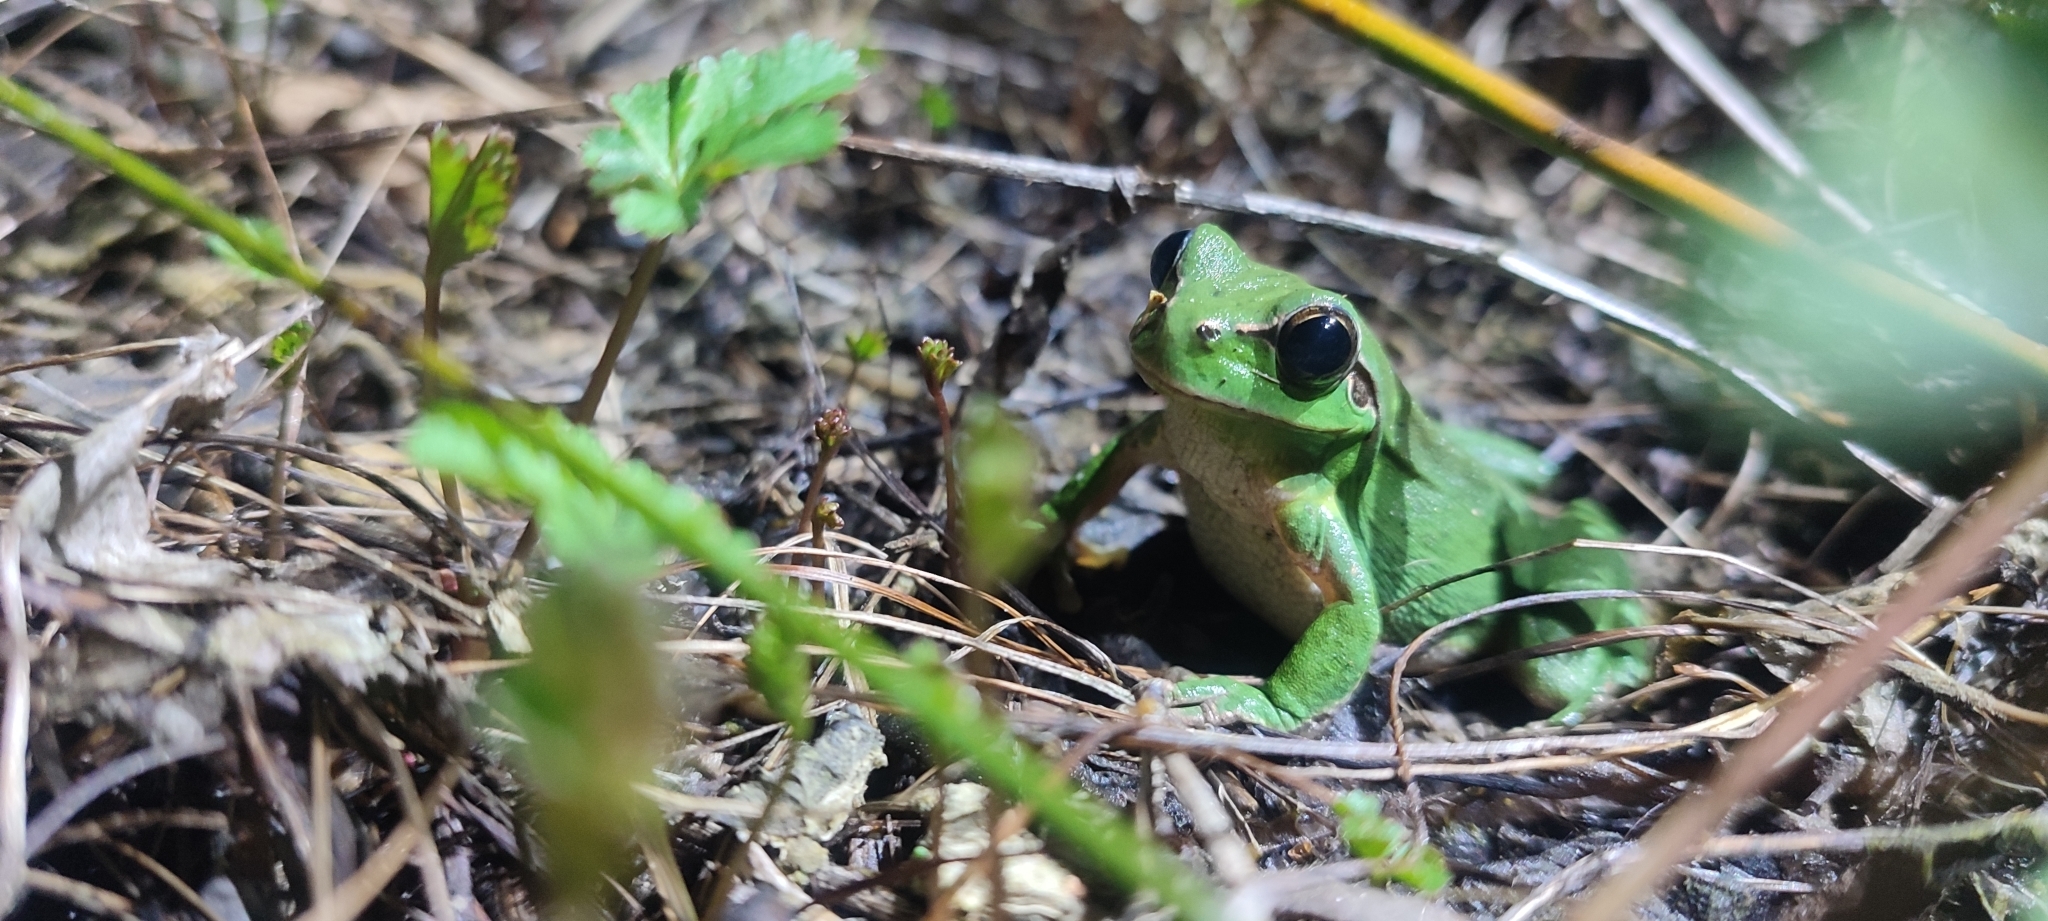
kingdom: Animalia
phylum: Chordata
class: Amphibia
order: Anura
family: Hylidae
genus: Hyla
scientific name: Hyla meridionalis
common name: Stripeless tree frog
